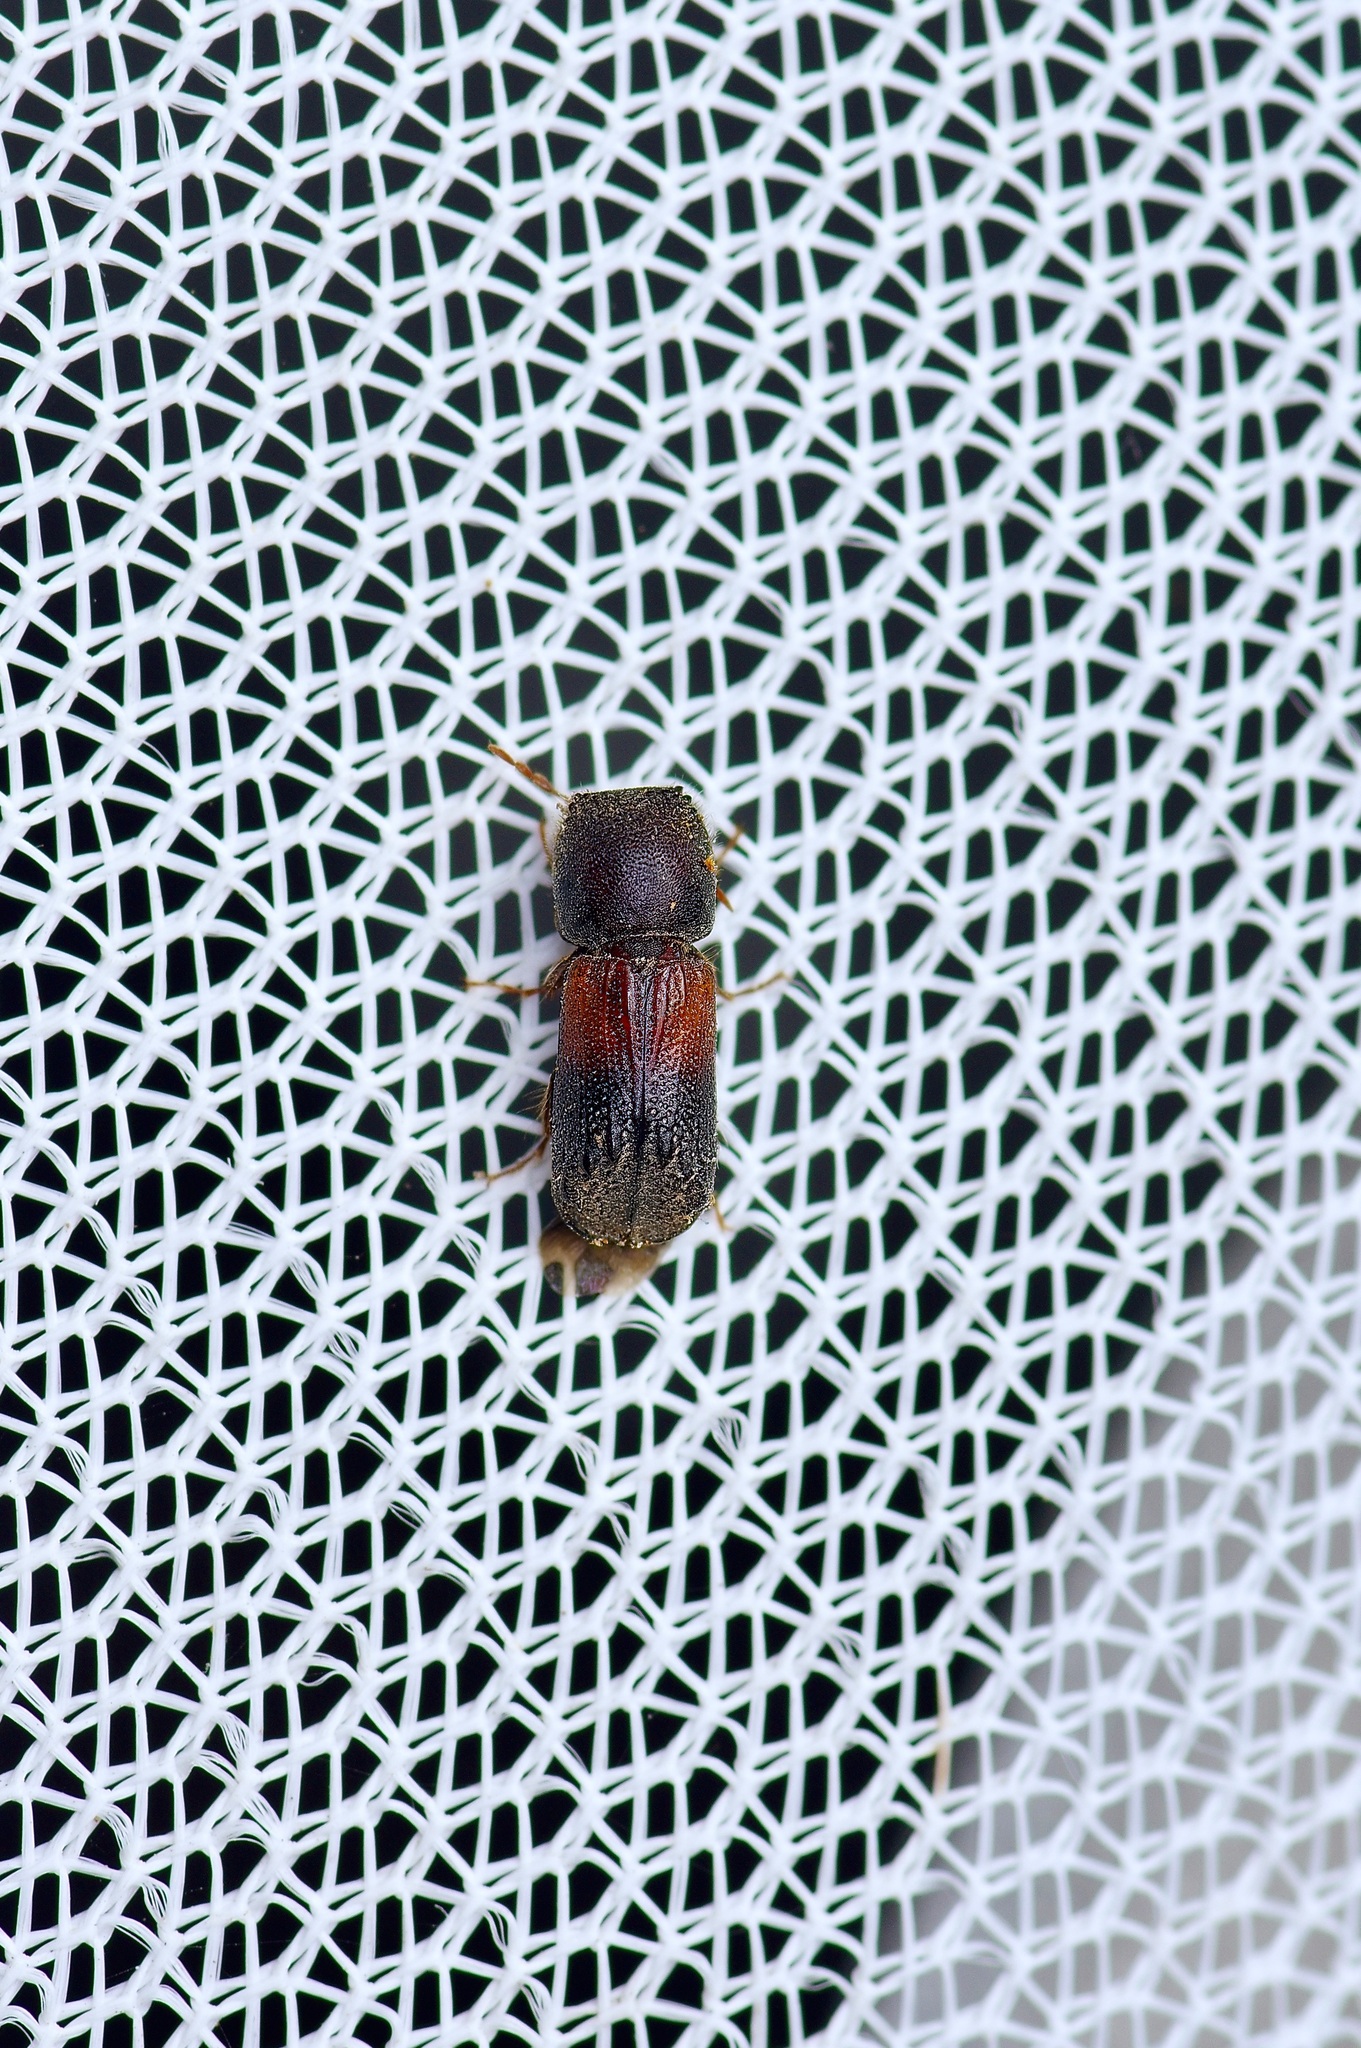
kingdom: Animalia
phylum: Arthropoda
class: Insecta
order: Coleoptera
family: Bostrichidae
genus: Xylobiops
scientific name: Xylobiops basilaris
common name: Red-shouldered bostrichid
